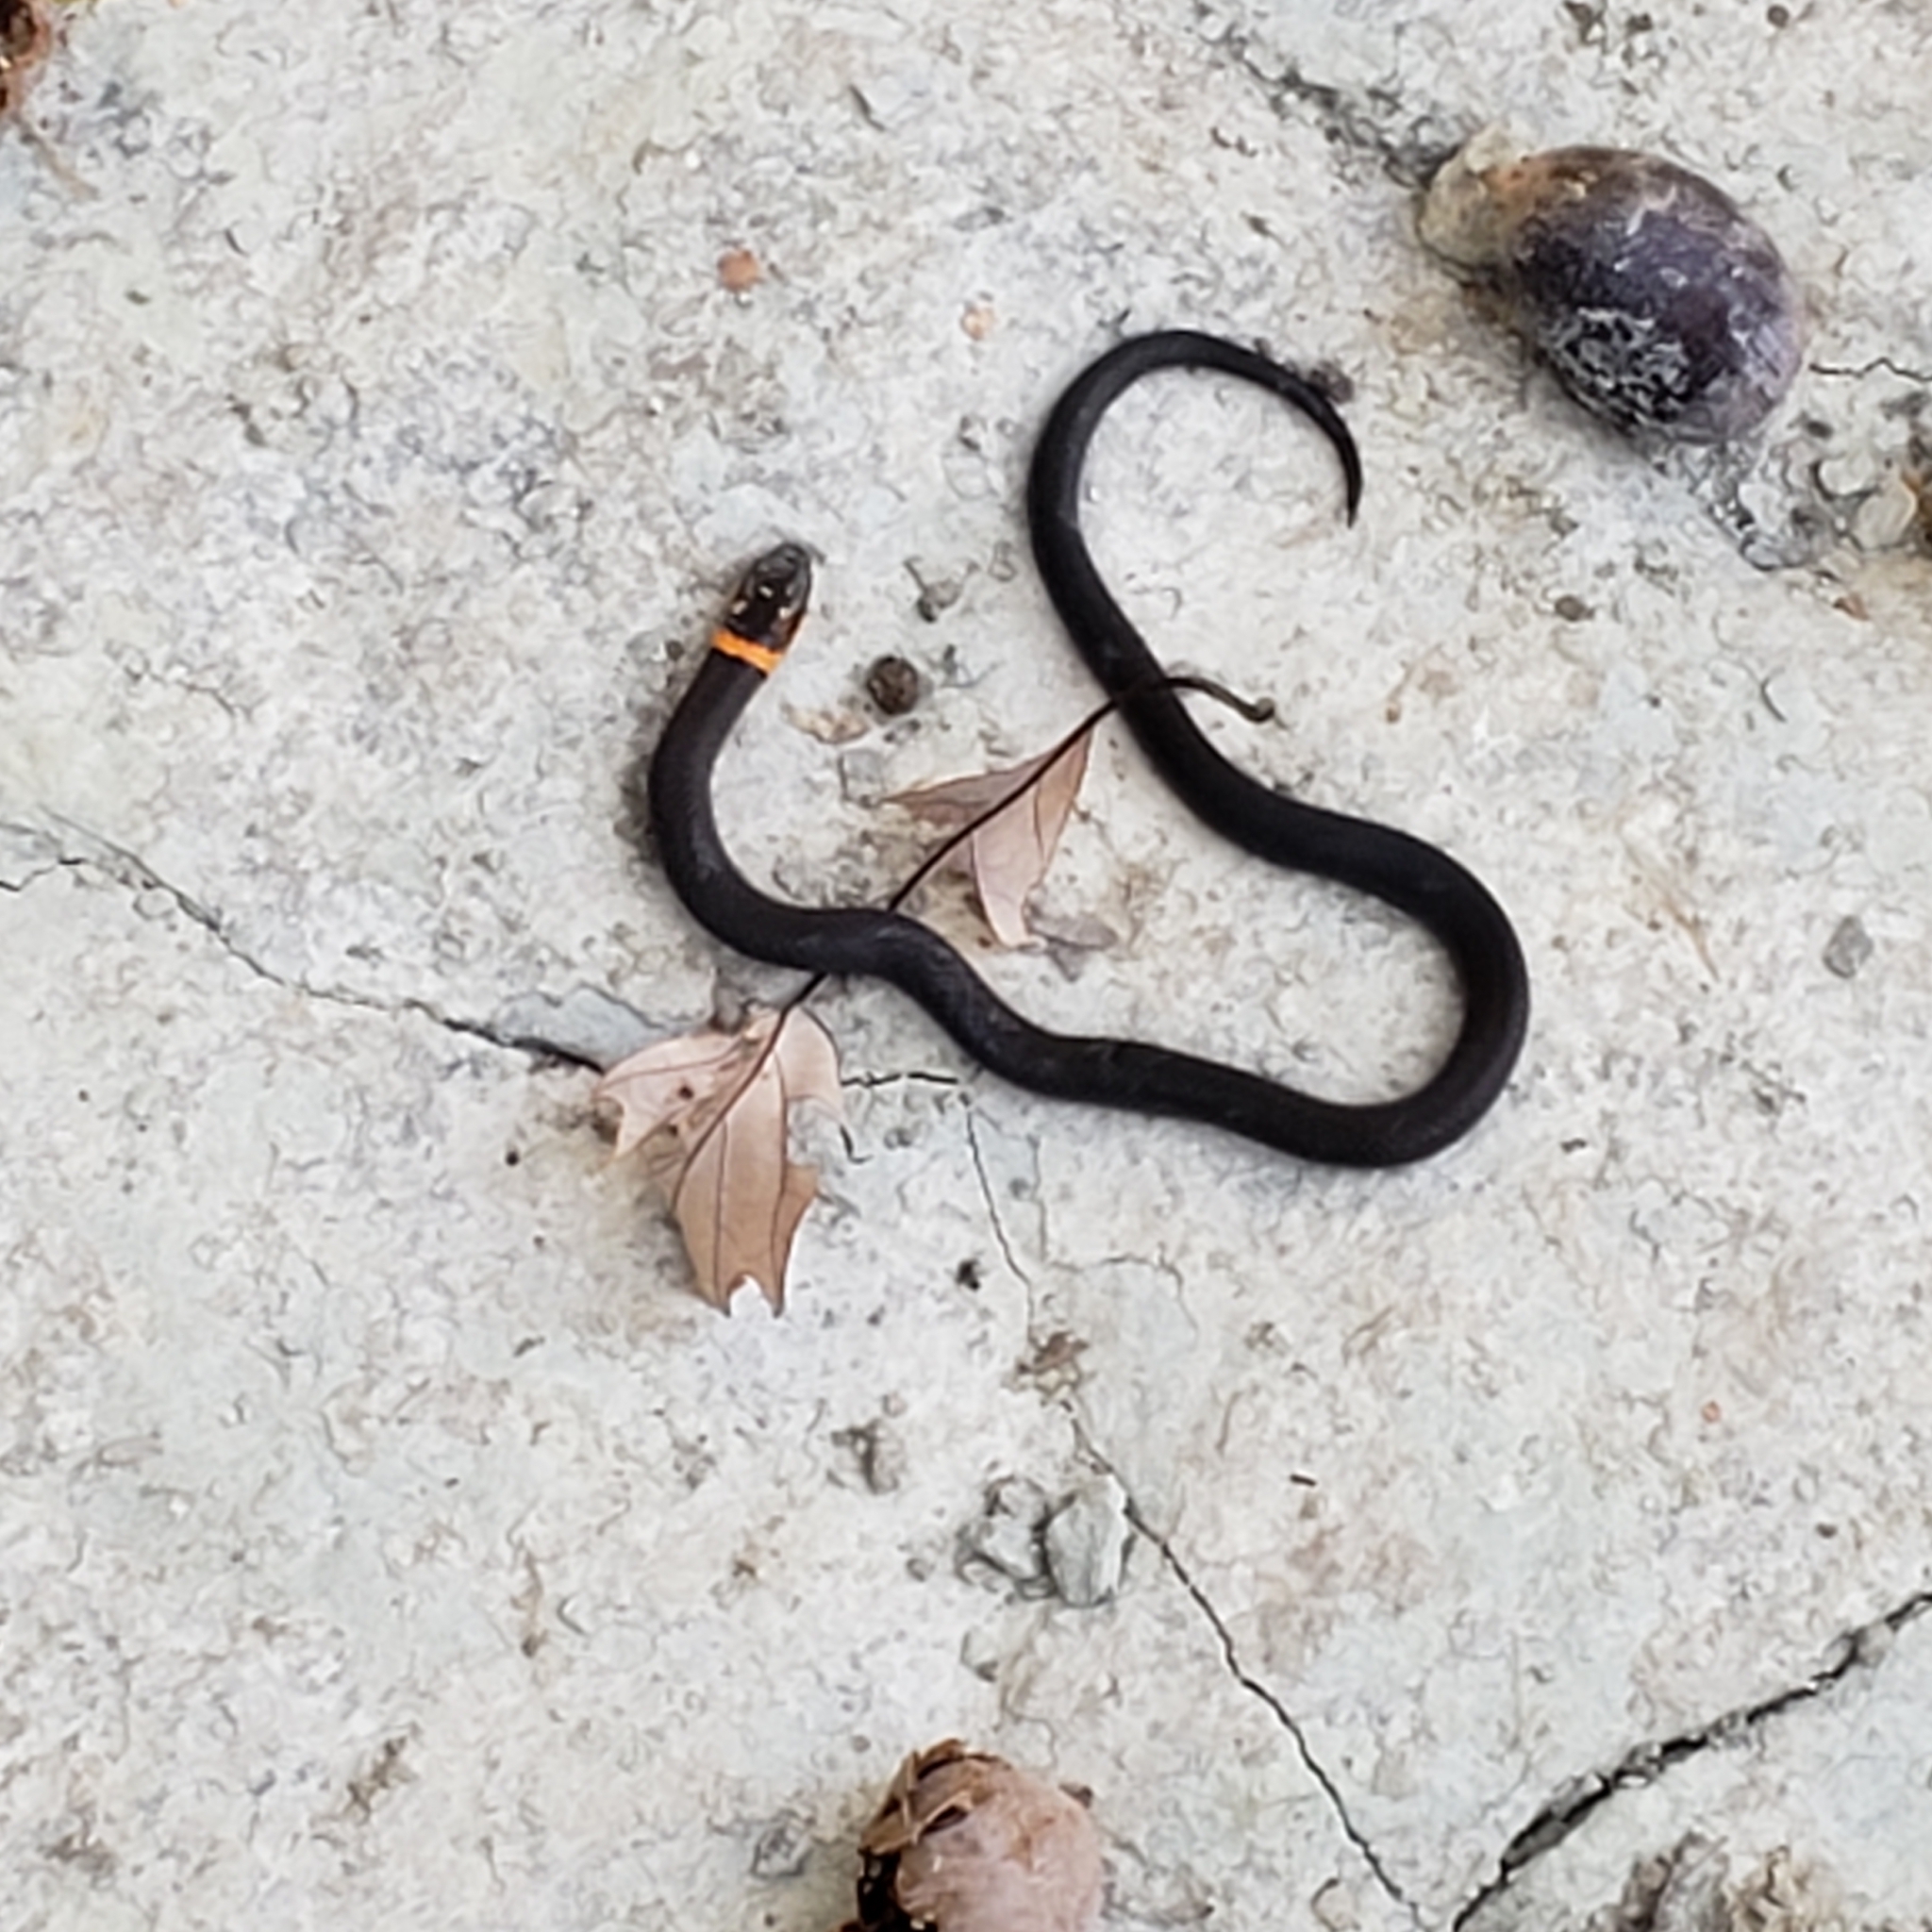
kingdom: Animalia
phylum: Chordata
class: Squamata
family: Colubridae
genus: Diadophis
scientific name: Diadophis punctatus
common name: Ringneck snake
